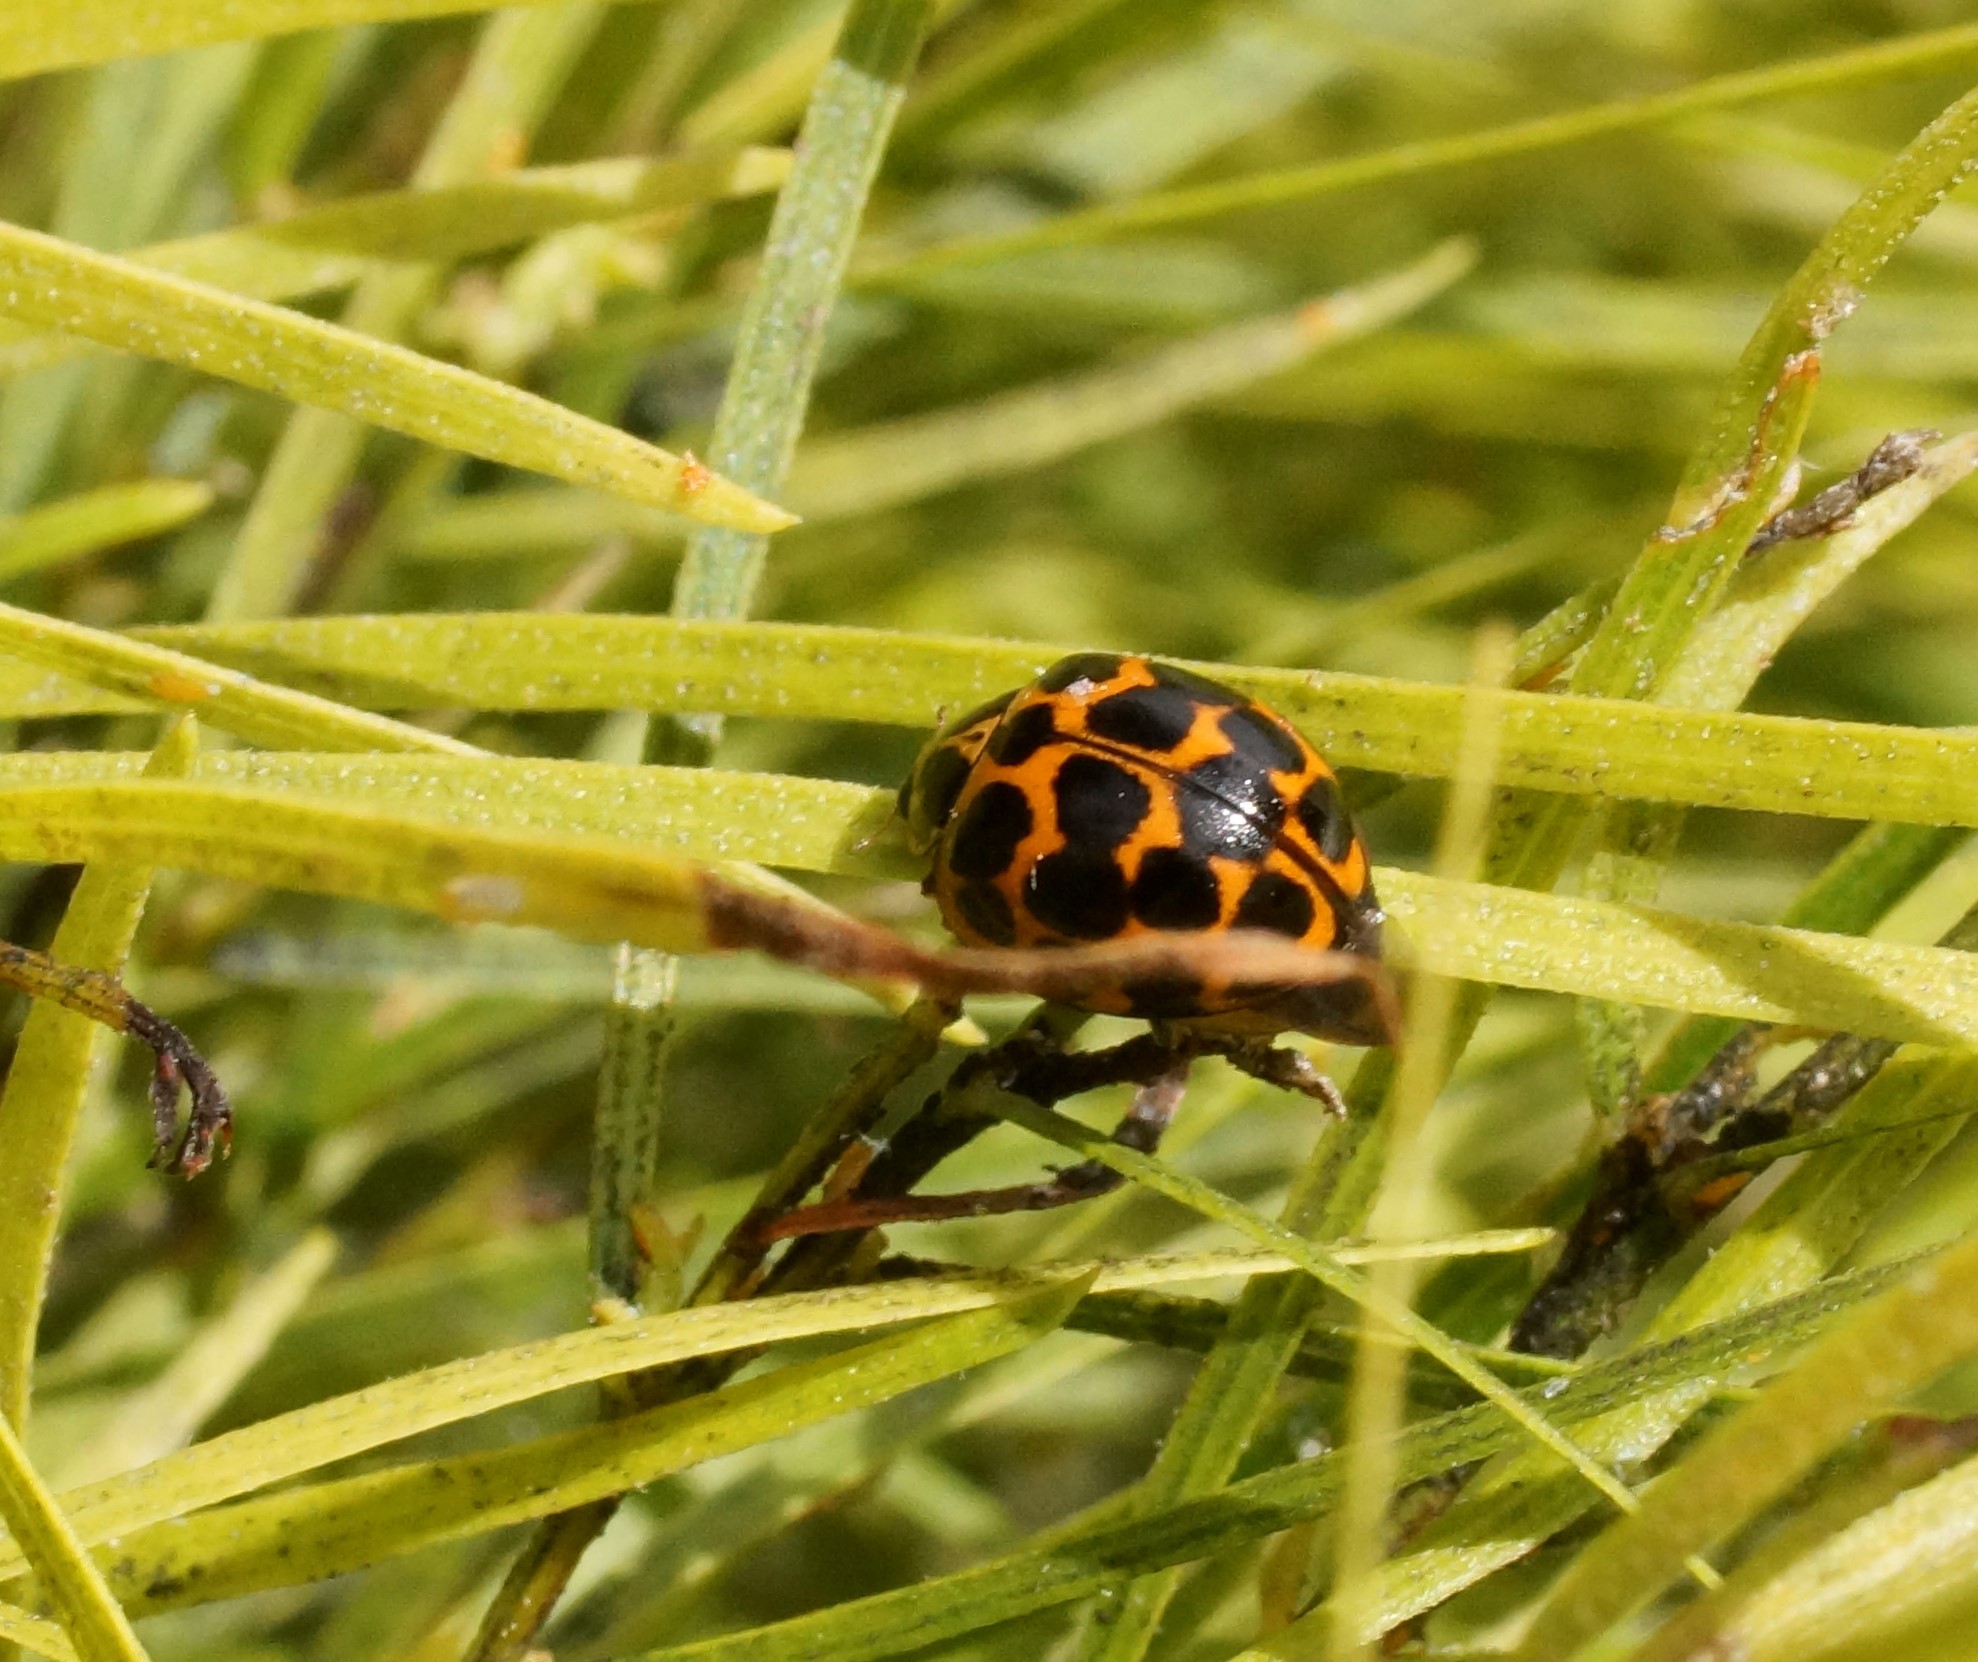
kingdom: Animalia
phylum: Arthropoda
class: Insecta
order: Coleoptera
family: Coccinellidae
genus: Harmonia
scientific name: Harmonia conformis
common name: Common spotted ladybird beetle
